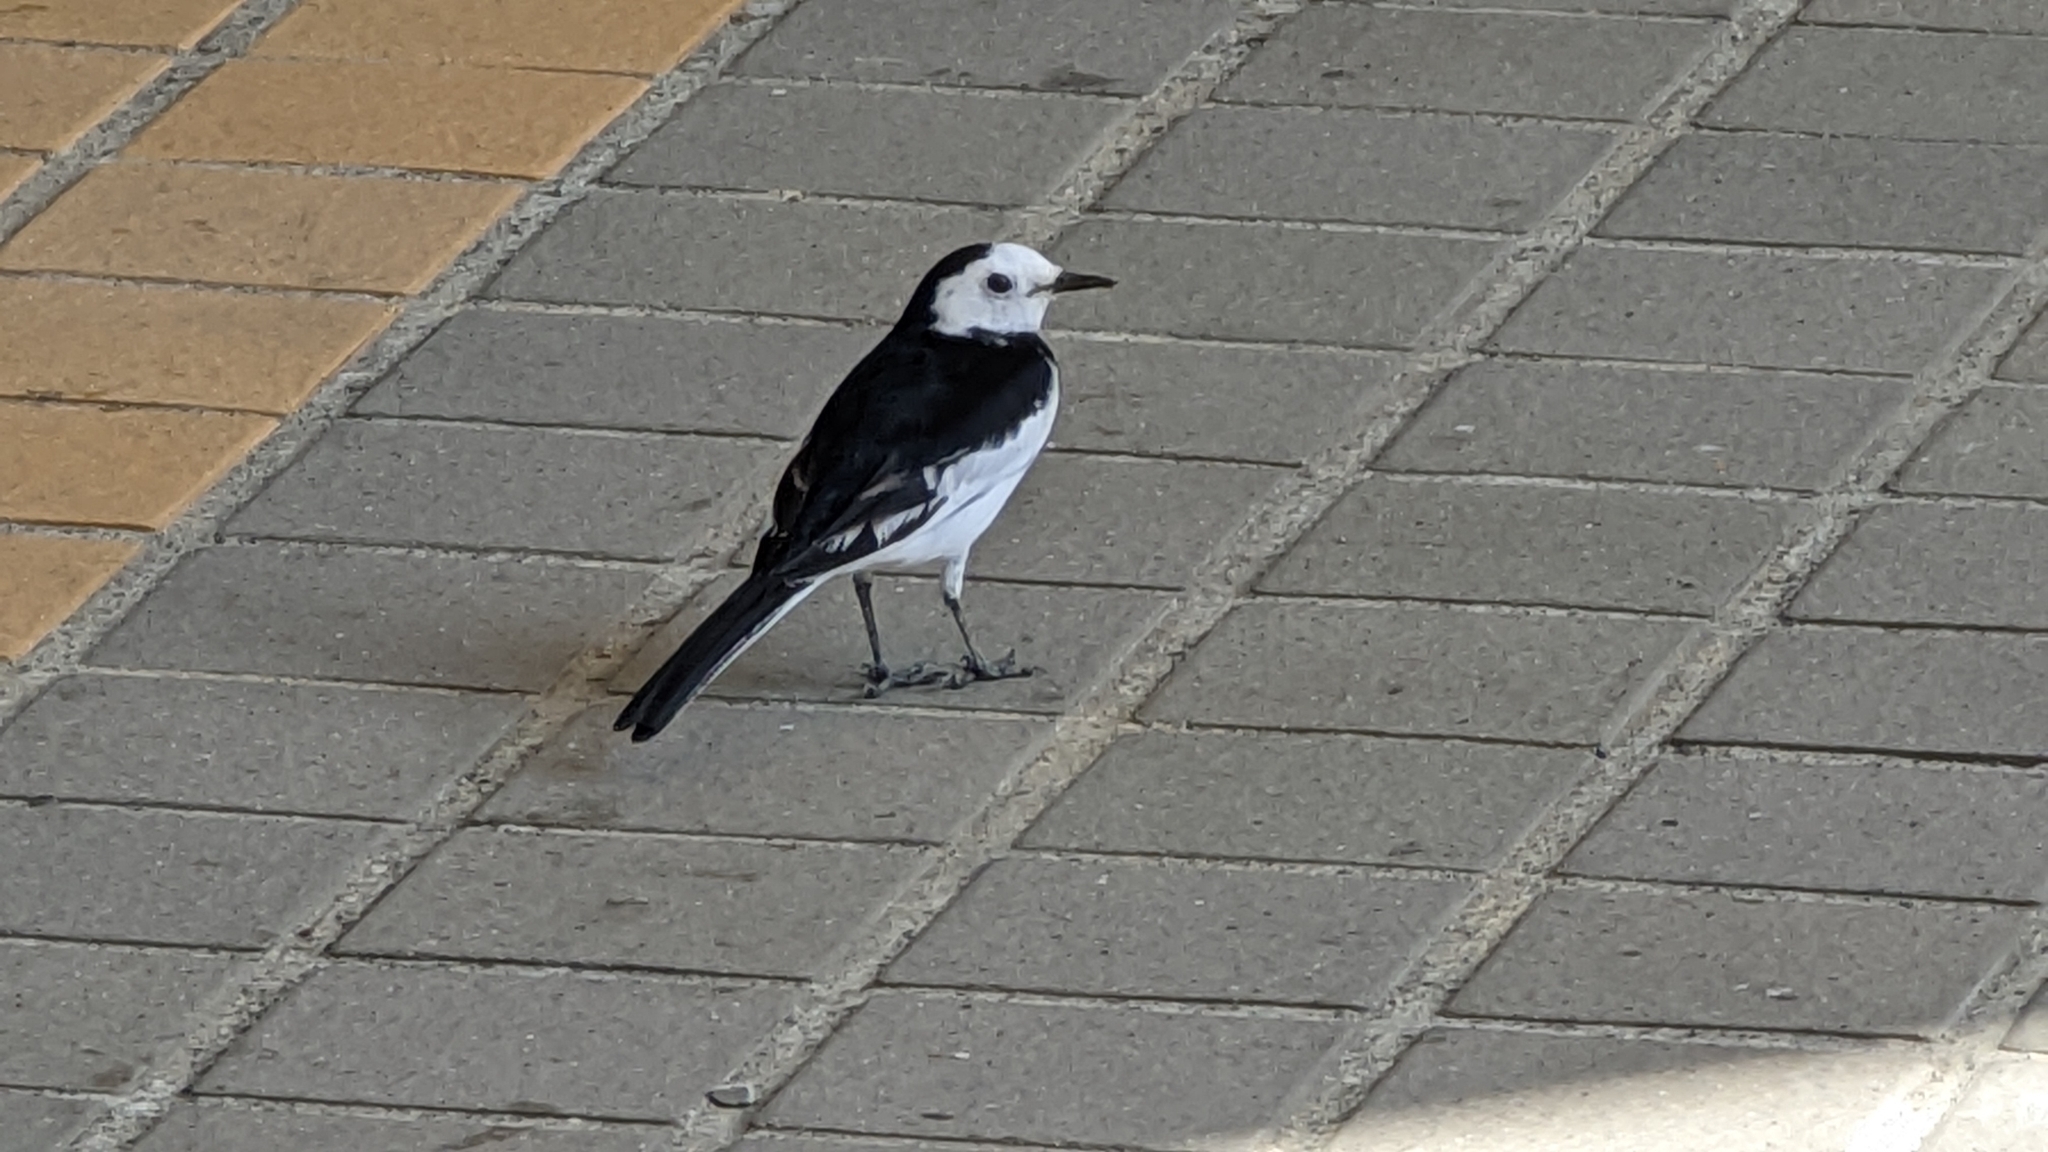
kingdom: Animalia
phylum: Chordata
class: Aves
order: Passeriformes
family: Motacillidae
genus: Motacilla
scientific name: Motacilla alba
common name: White wagtail
